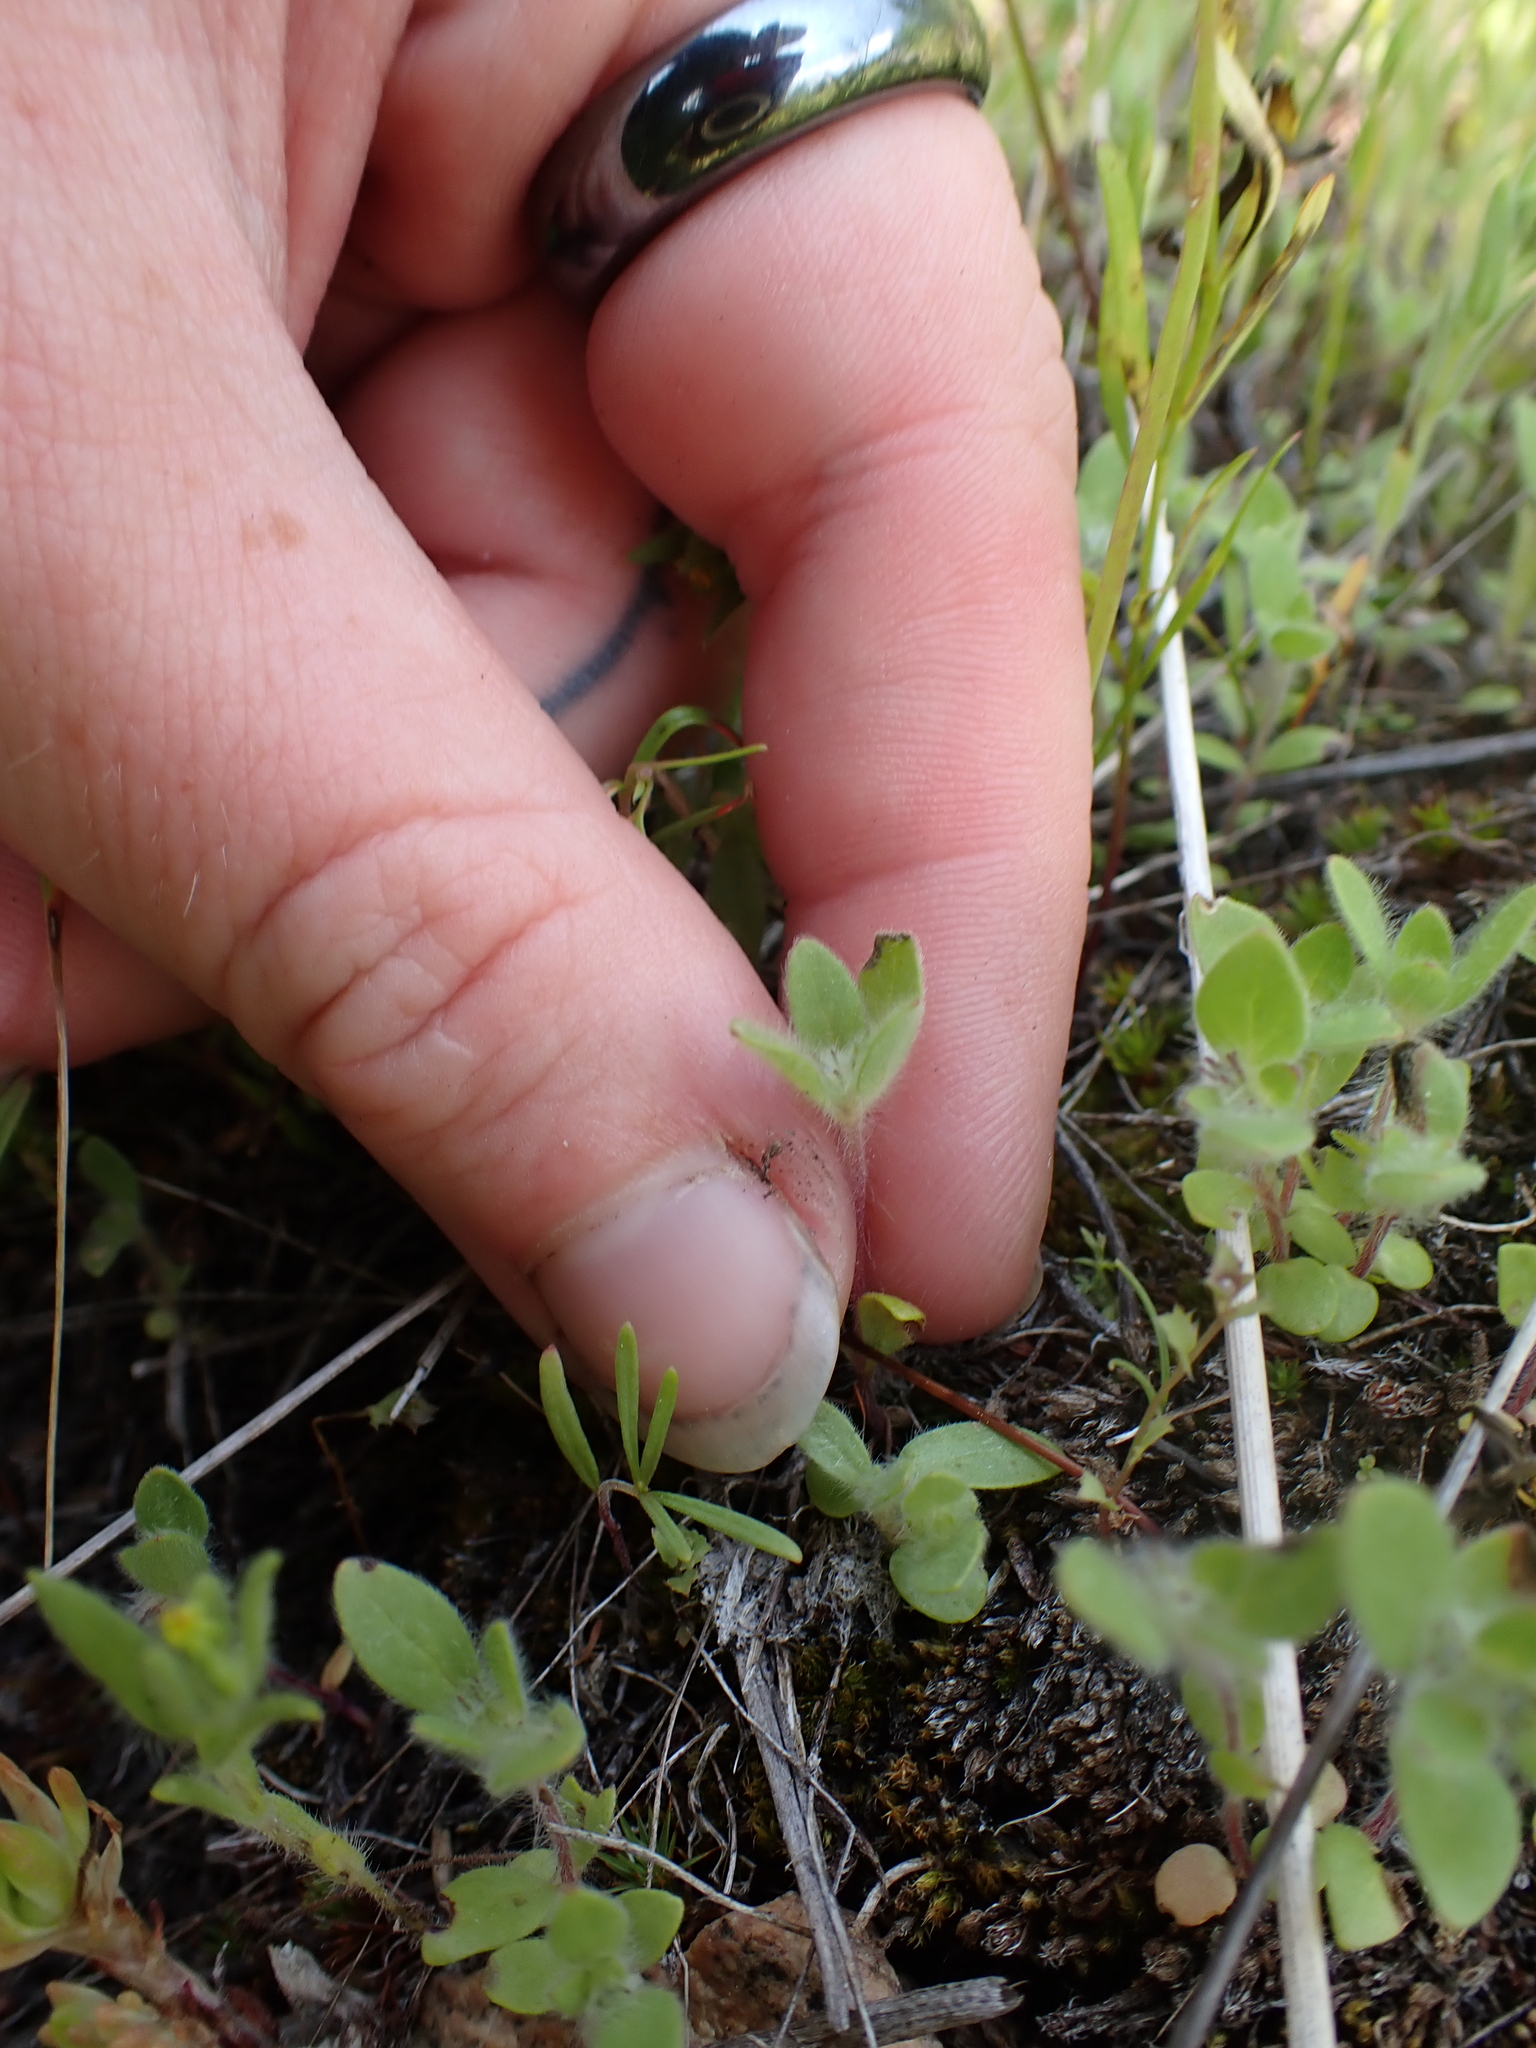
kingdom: Plantae
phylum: Tracheophyta
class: Magnoliopsida
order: Lamiales
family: Lamiaceae
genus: Trichostema
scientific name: Trichostema oblongum
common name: Mountain bluecurls
